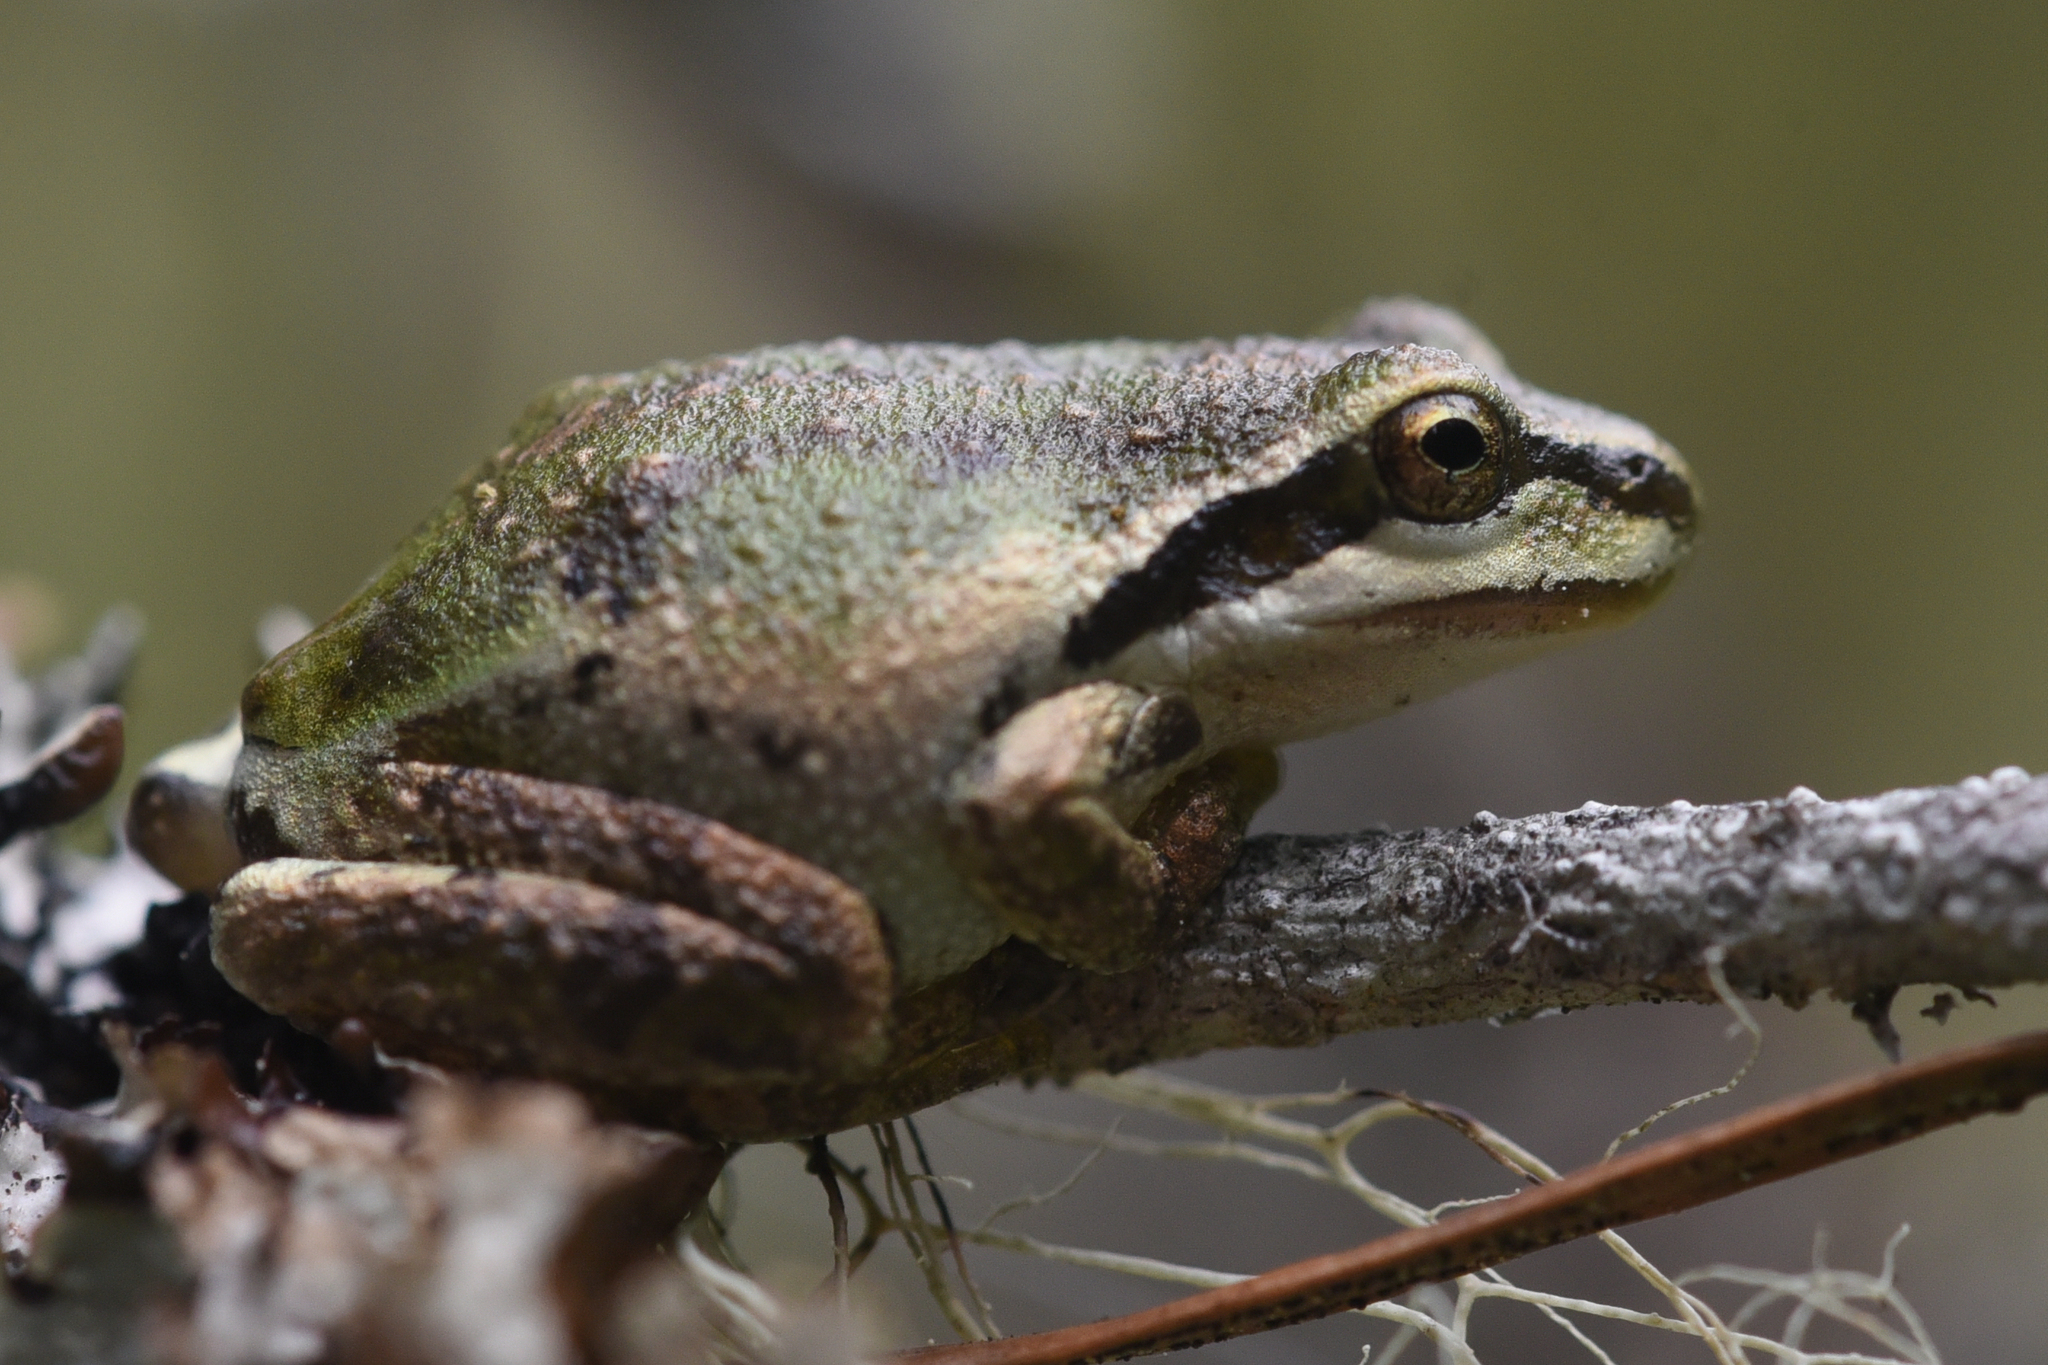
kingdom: Animalia
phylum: Chordata
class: Amphibia
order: Anura
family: Hylidae
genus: Pseudacris
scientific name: Pseudacris regilla
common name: Pacific chorus frog
